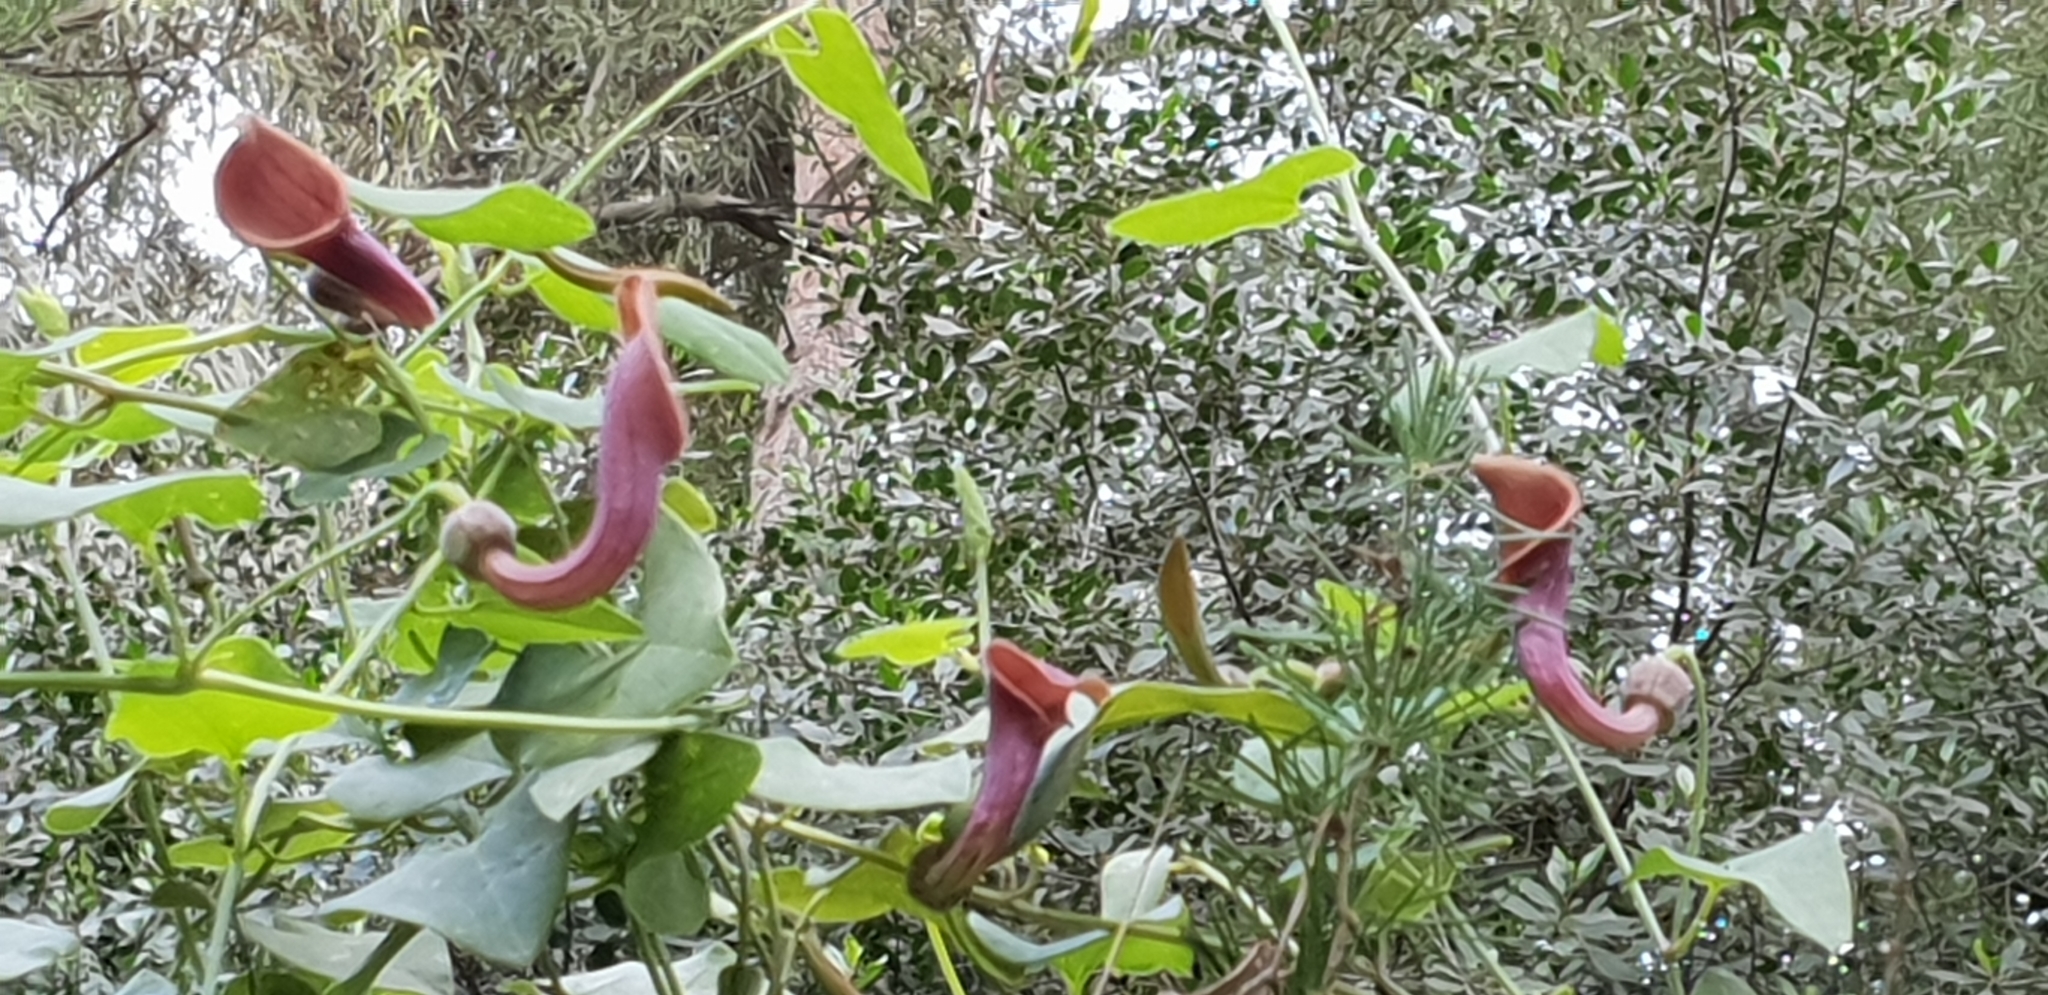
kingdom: Plantae
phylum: Tracheophyta
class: Magnoliopsida
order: Piperales
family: Aristolochiaceae
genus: Aristolochia
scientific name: Aristolochia baetica
